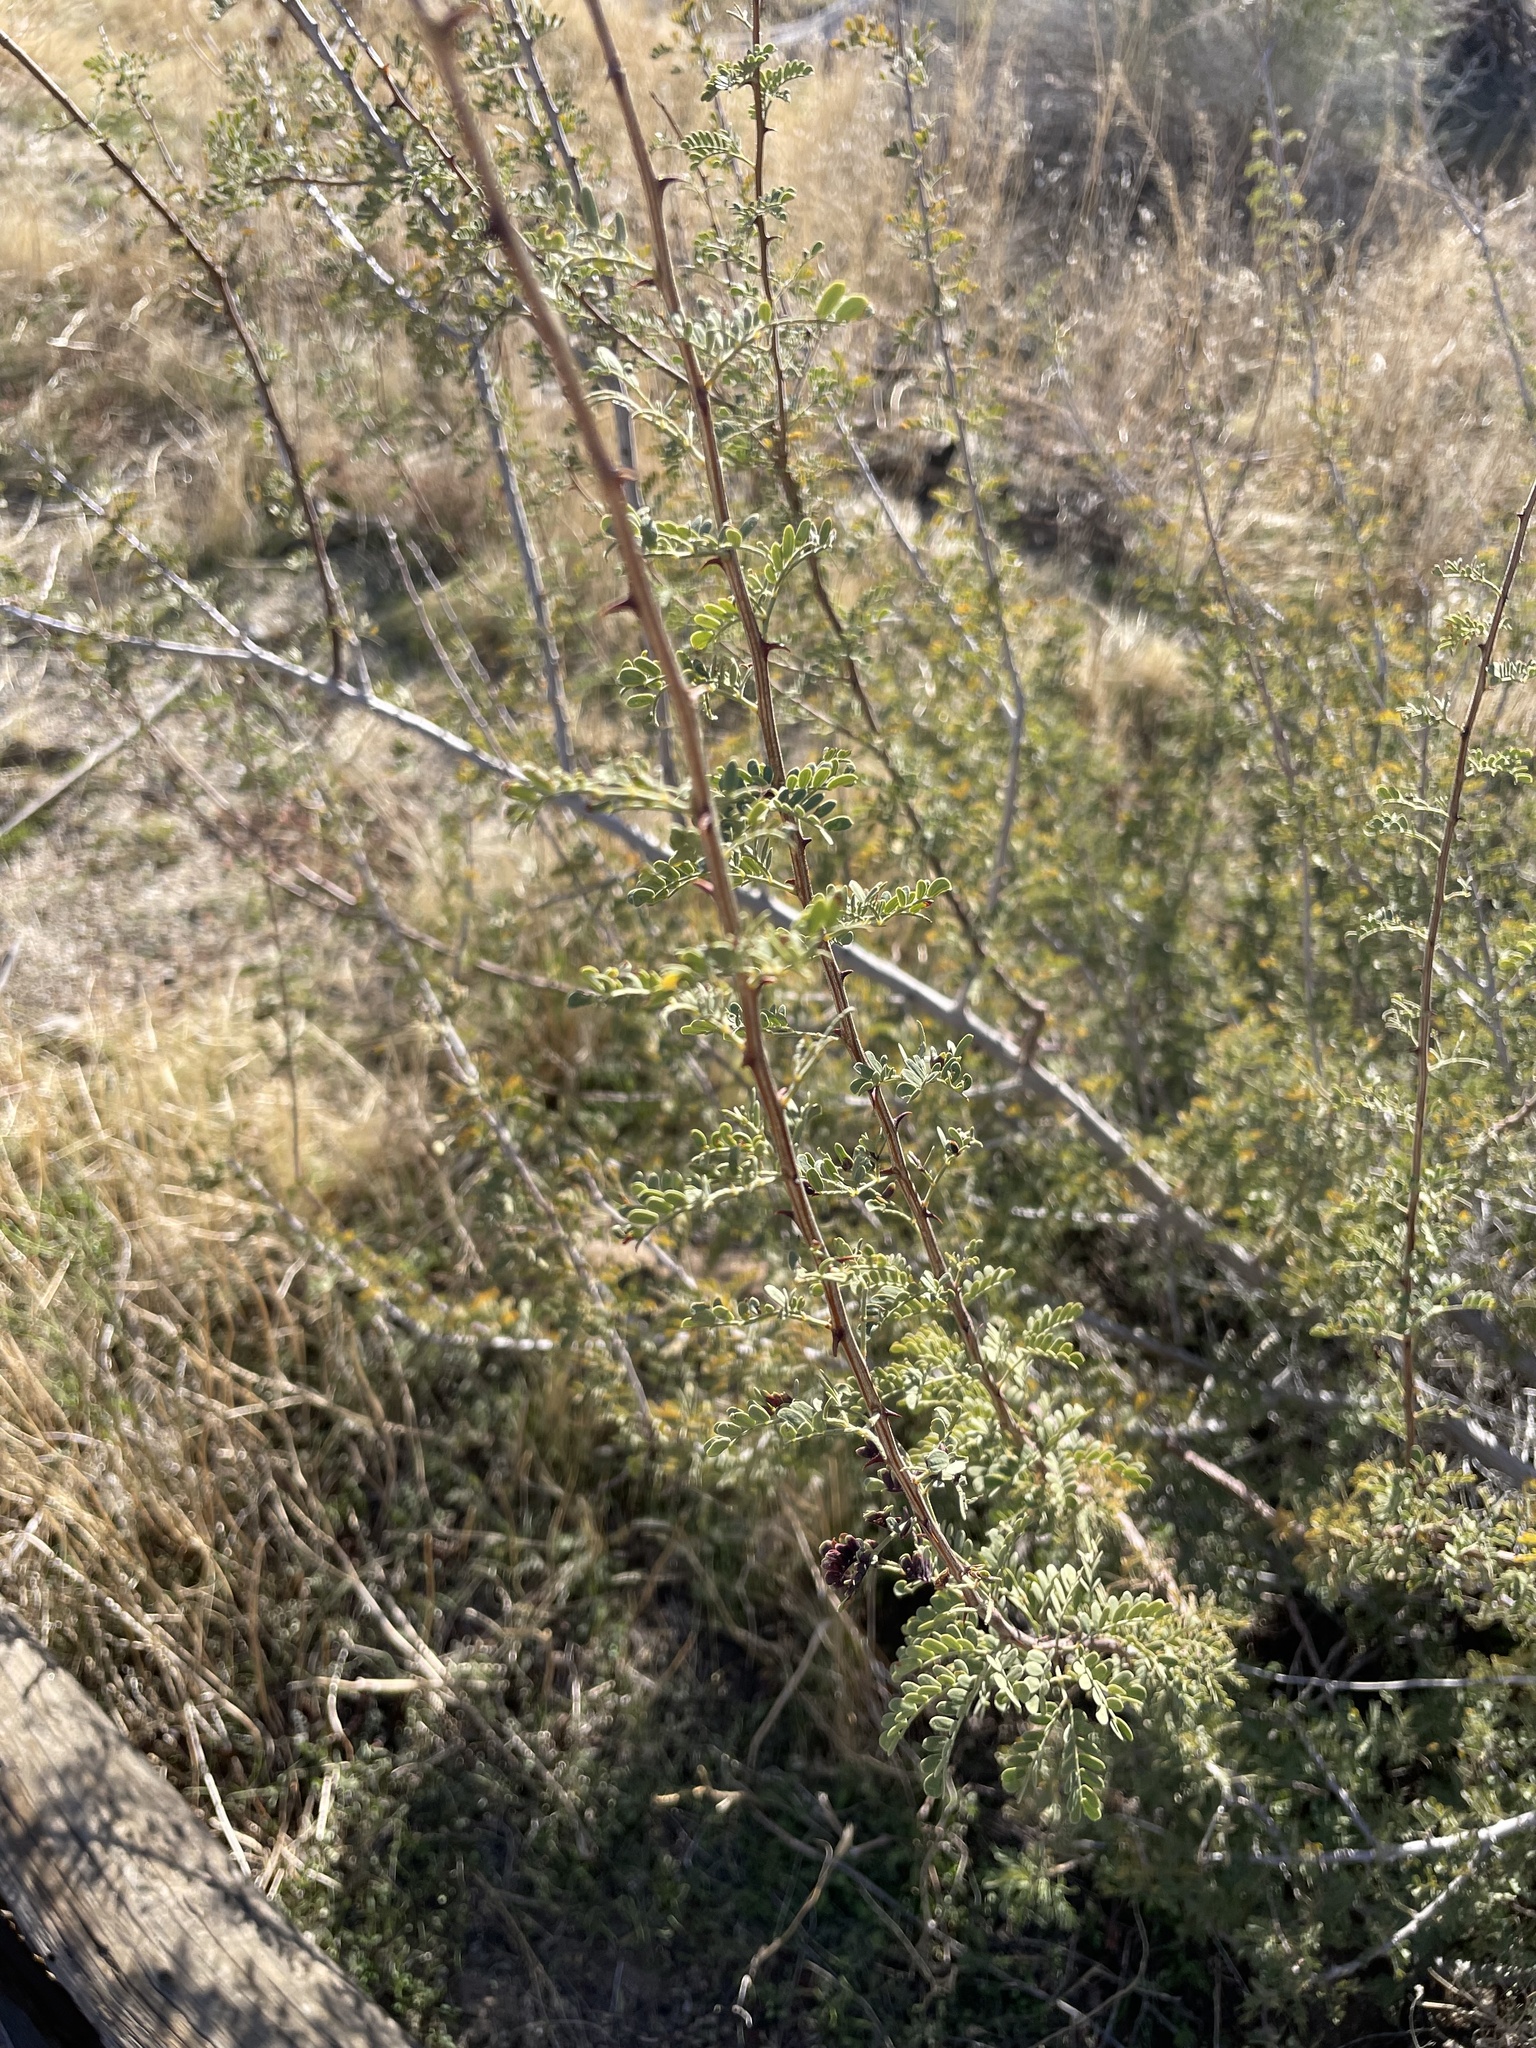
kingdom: Plantae
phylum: Tracheophyta
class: Magnoliopsida
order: Fabales
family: Fabaceae
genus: Senegalia
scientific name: Senegalia greggii
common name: Texas-mimosa
